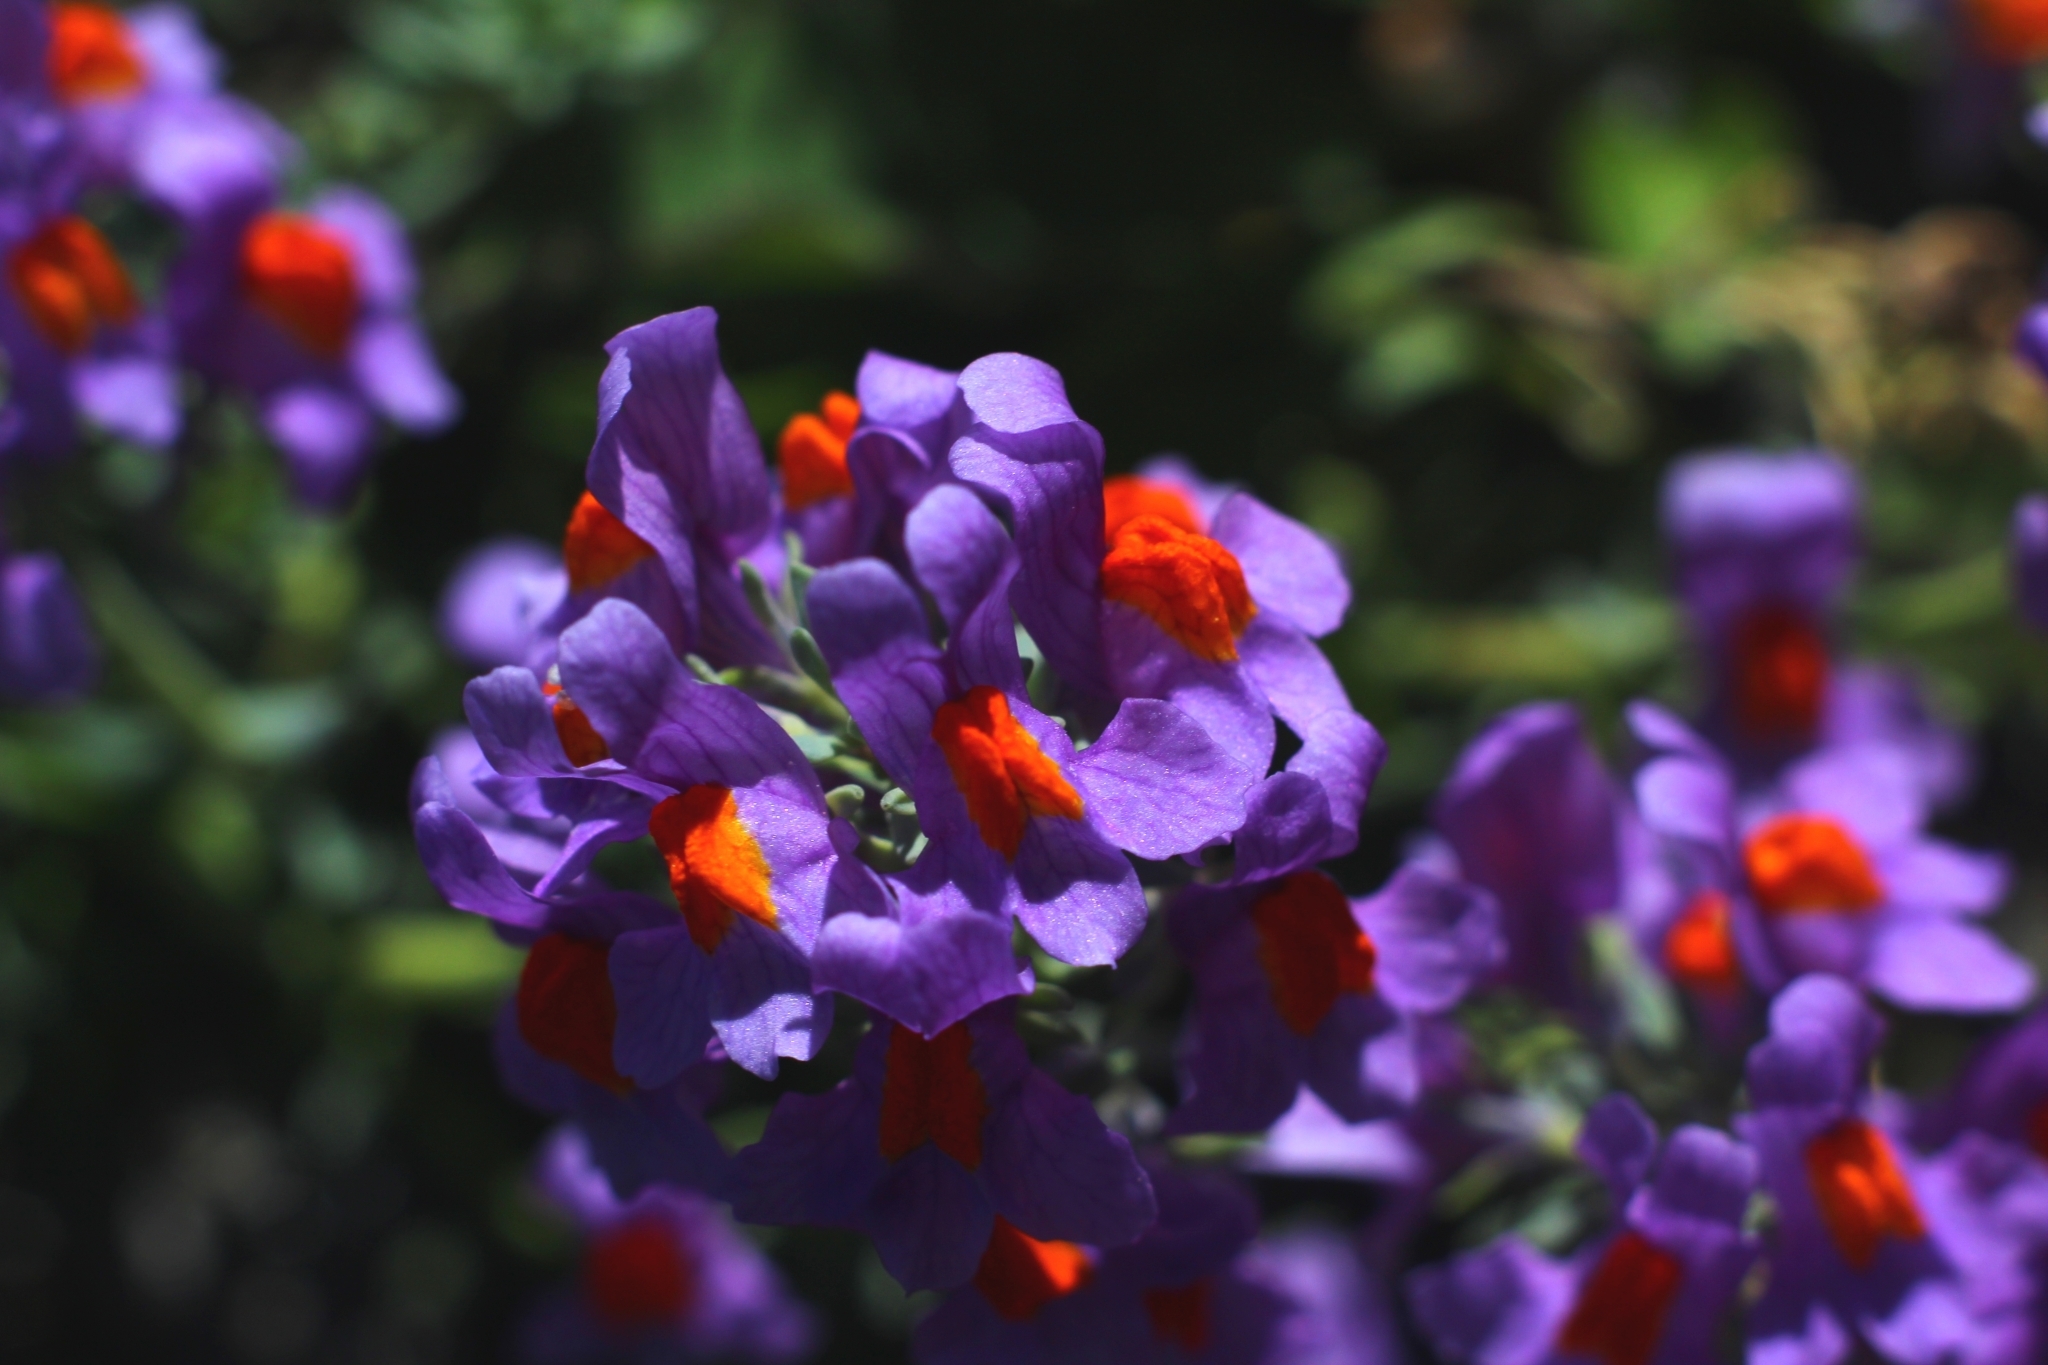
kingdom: Plantae
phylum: Tracheophyta
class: Magnoliopsida
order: Lamiales
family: Plantaginaceae
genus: Linaria
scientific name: Linaria alpina
